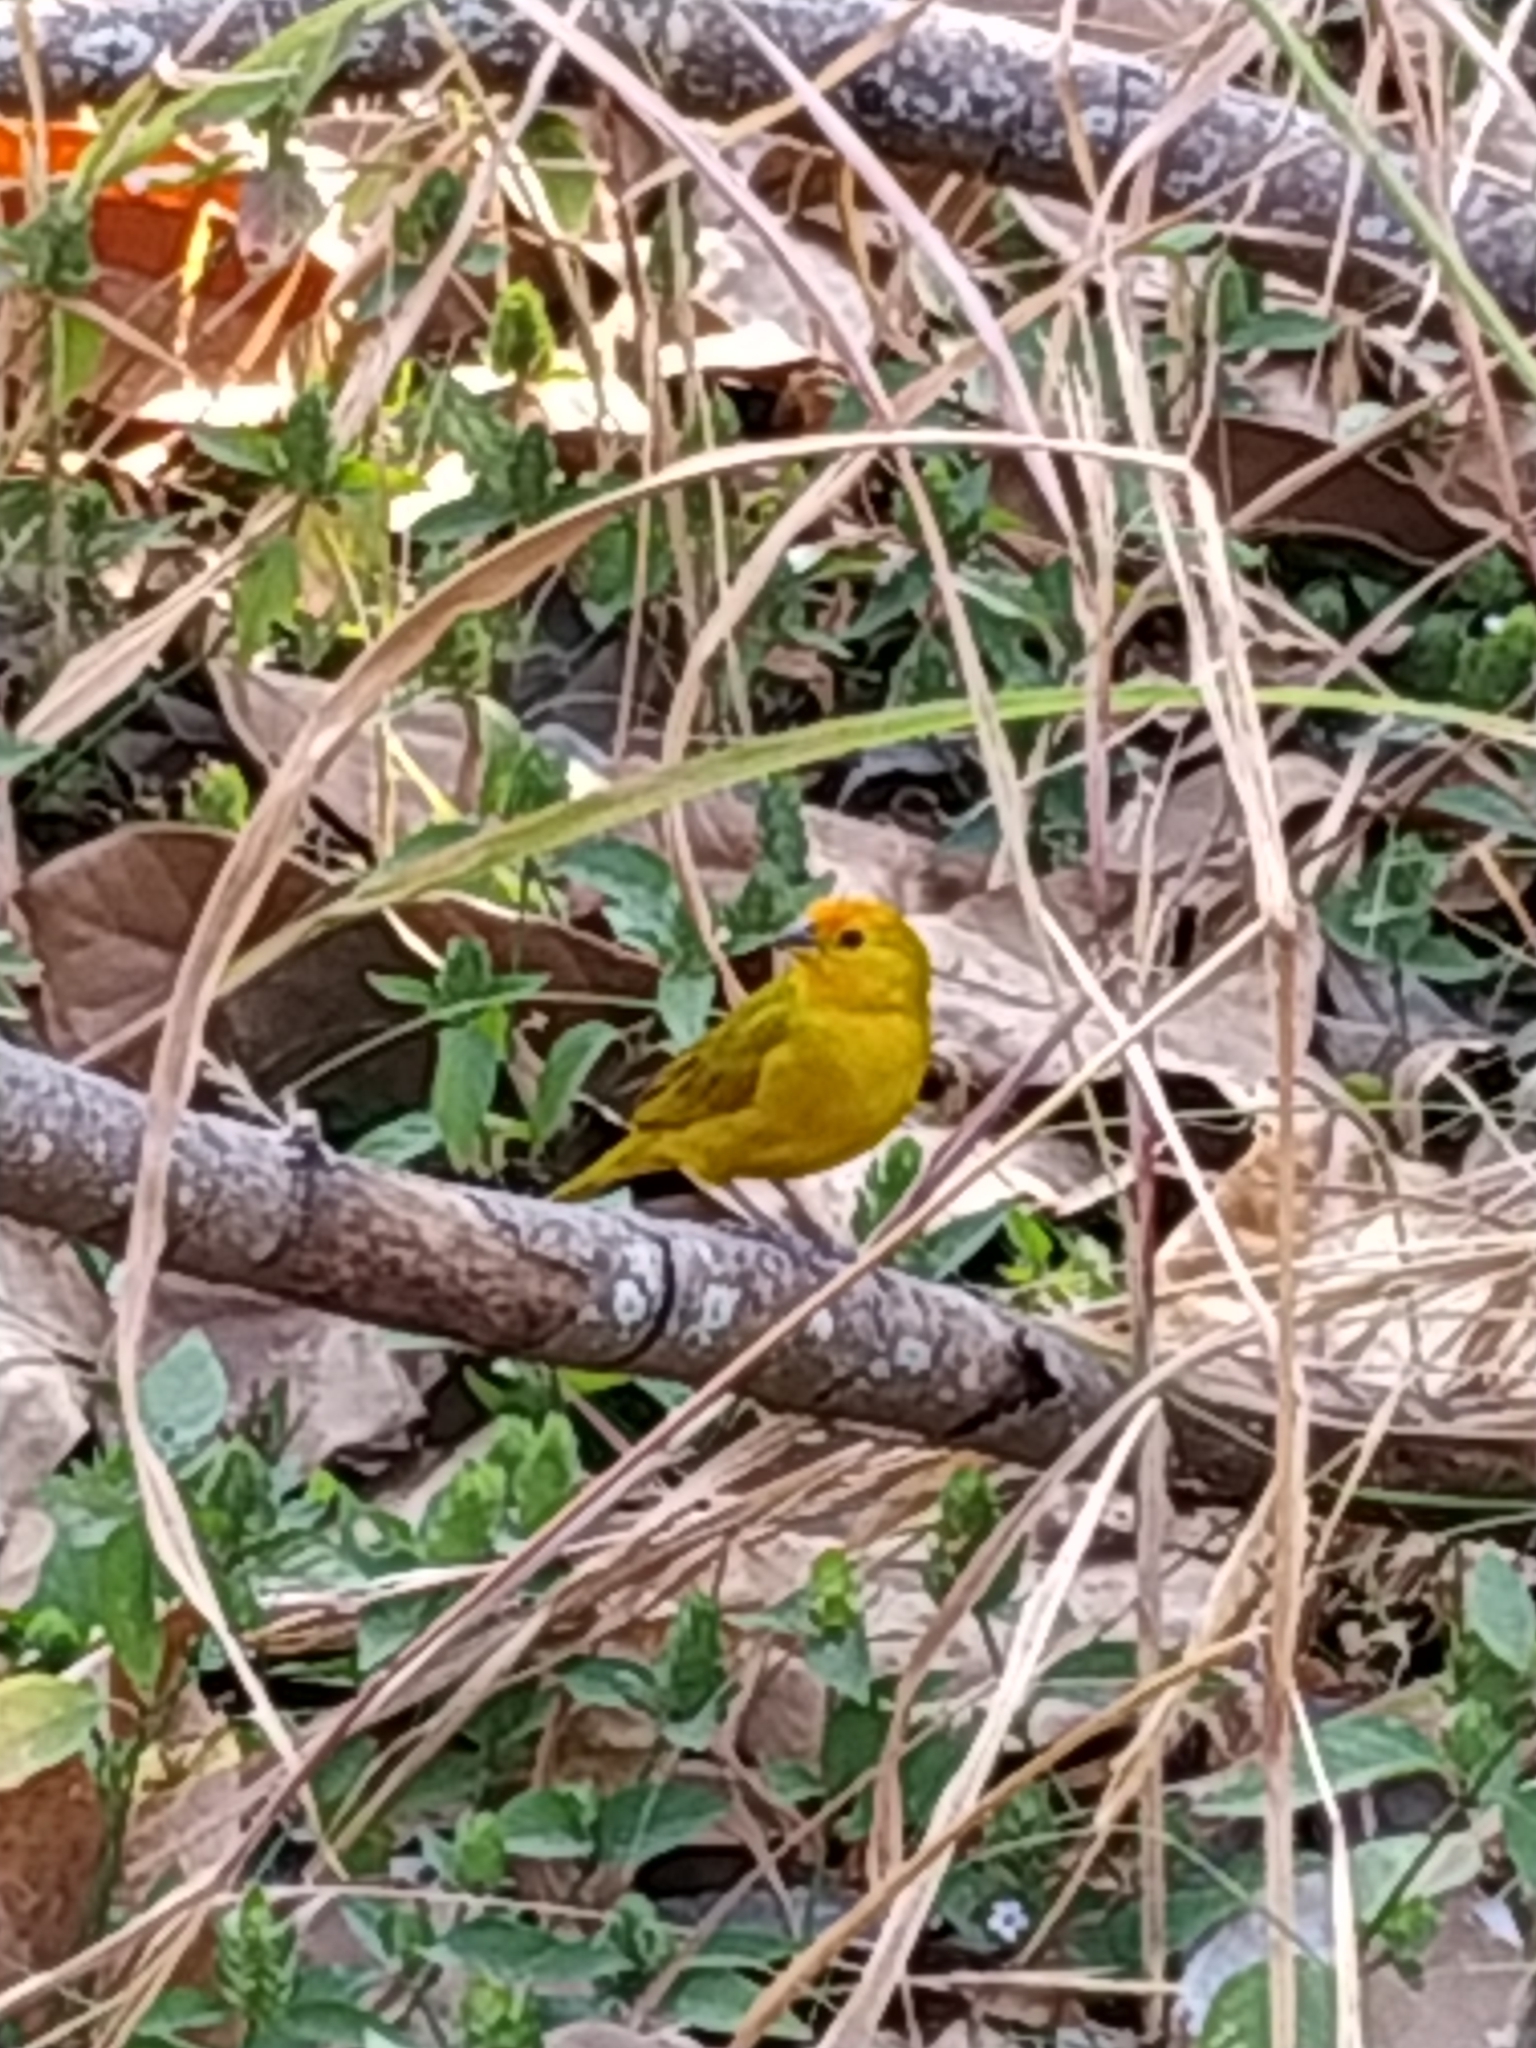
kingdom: Animalia
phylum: Chordata
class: Aves
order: Passeriformes
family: Thraupidae
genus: Sicalis
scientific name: Sicalis flaveola
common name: Saffron finch
